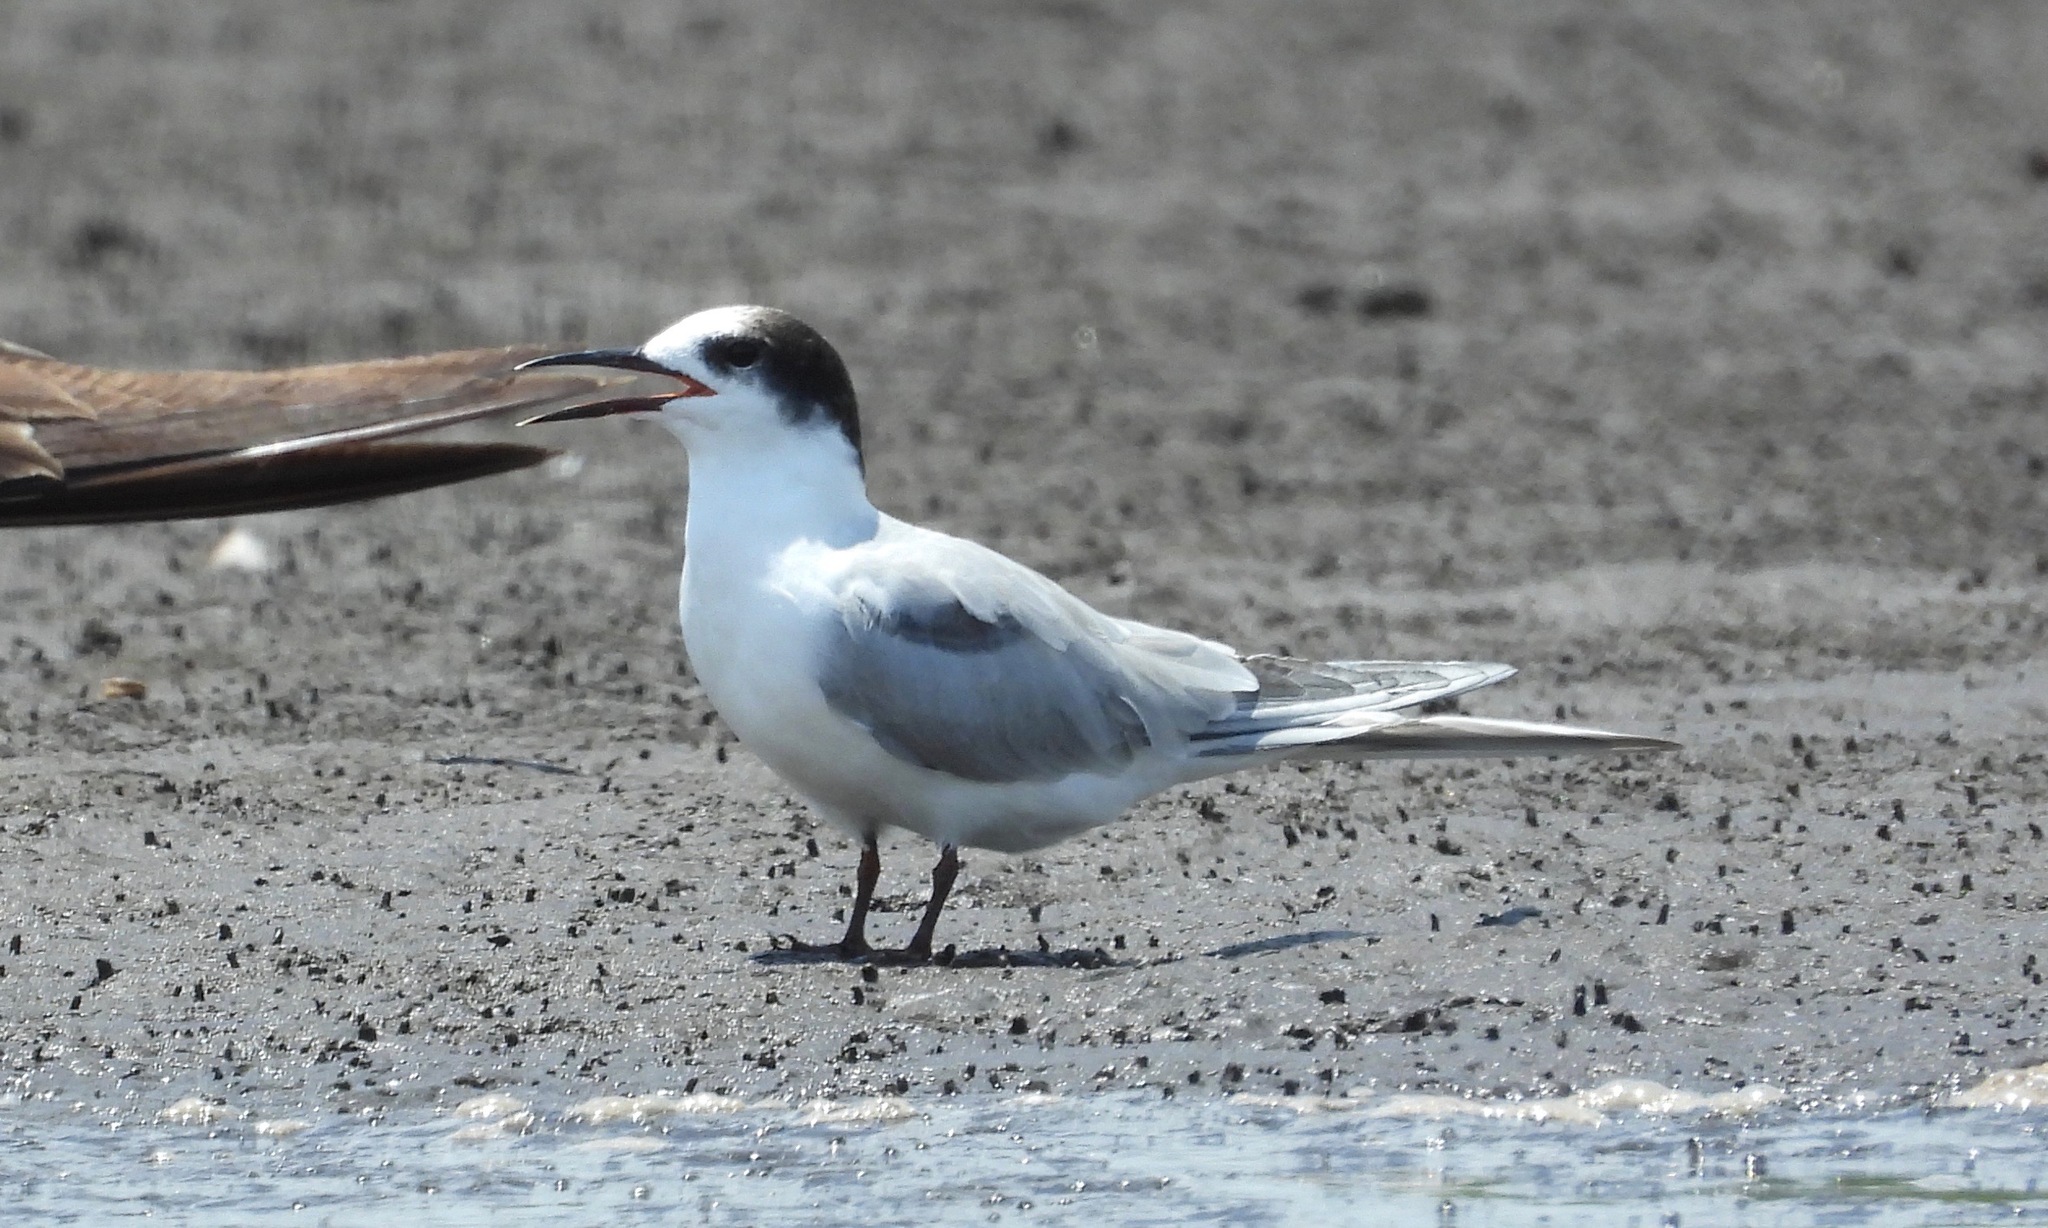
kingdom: Animalia
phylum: Chordata
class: Aves
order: Charadriiformes
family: Laridae
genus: Sterna
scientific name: Sterna hirundo
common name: Common tern
